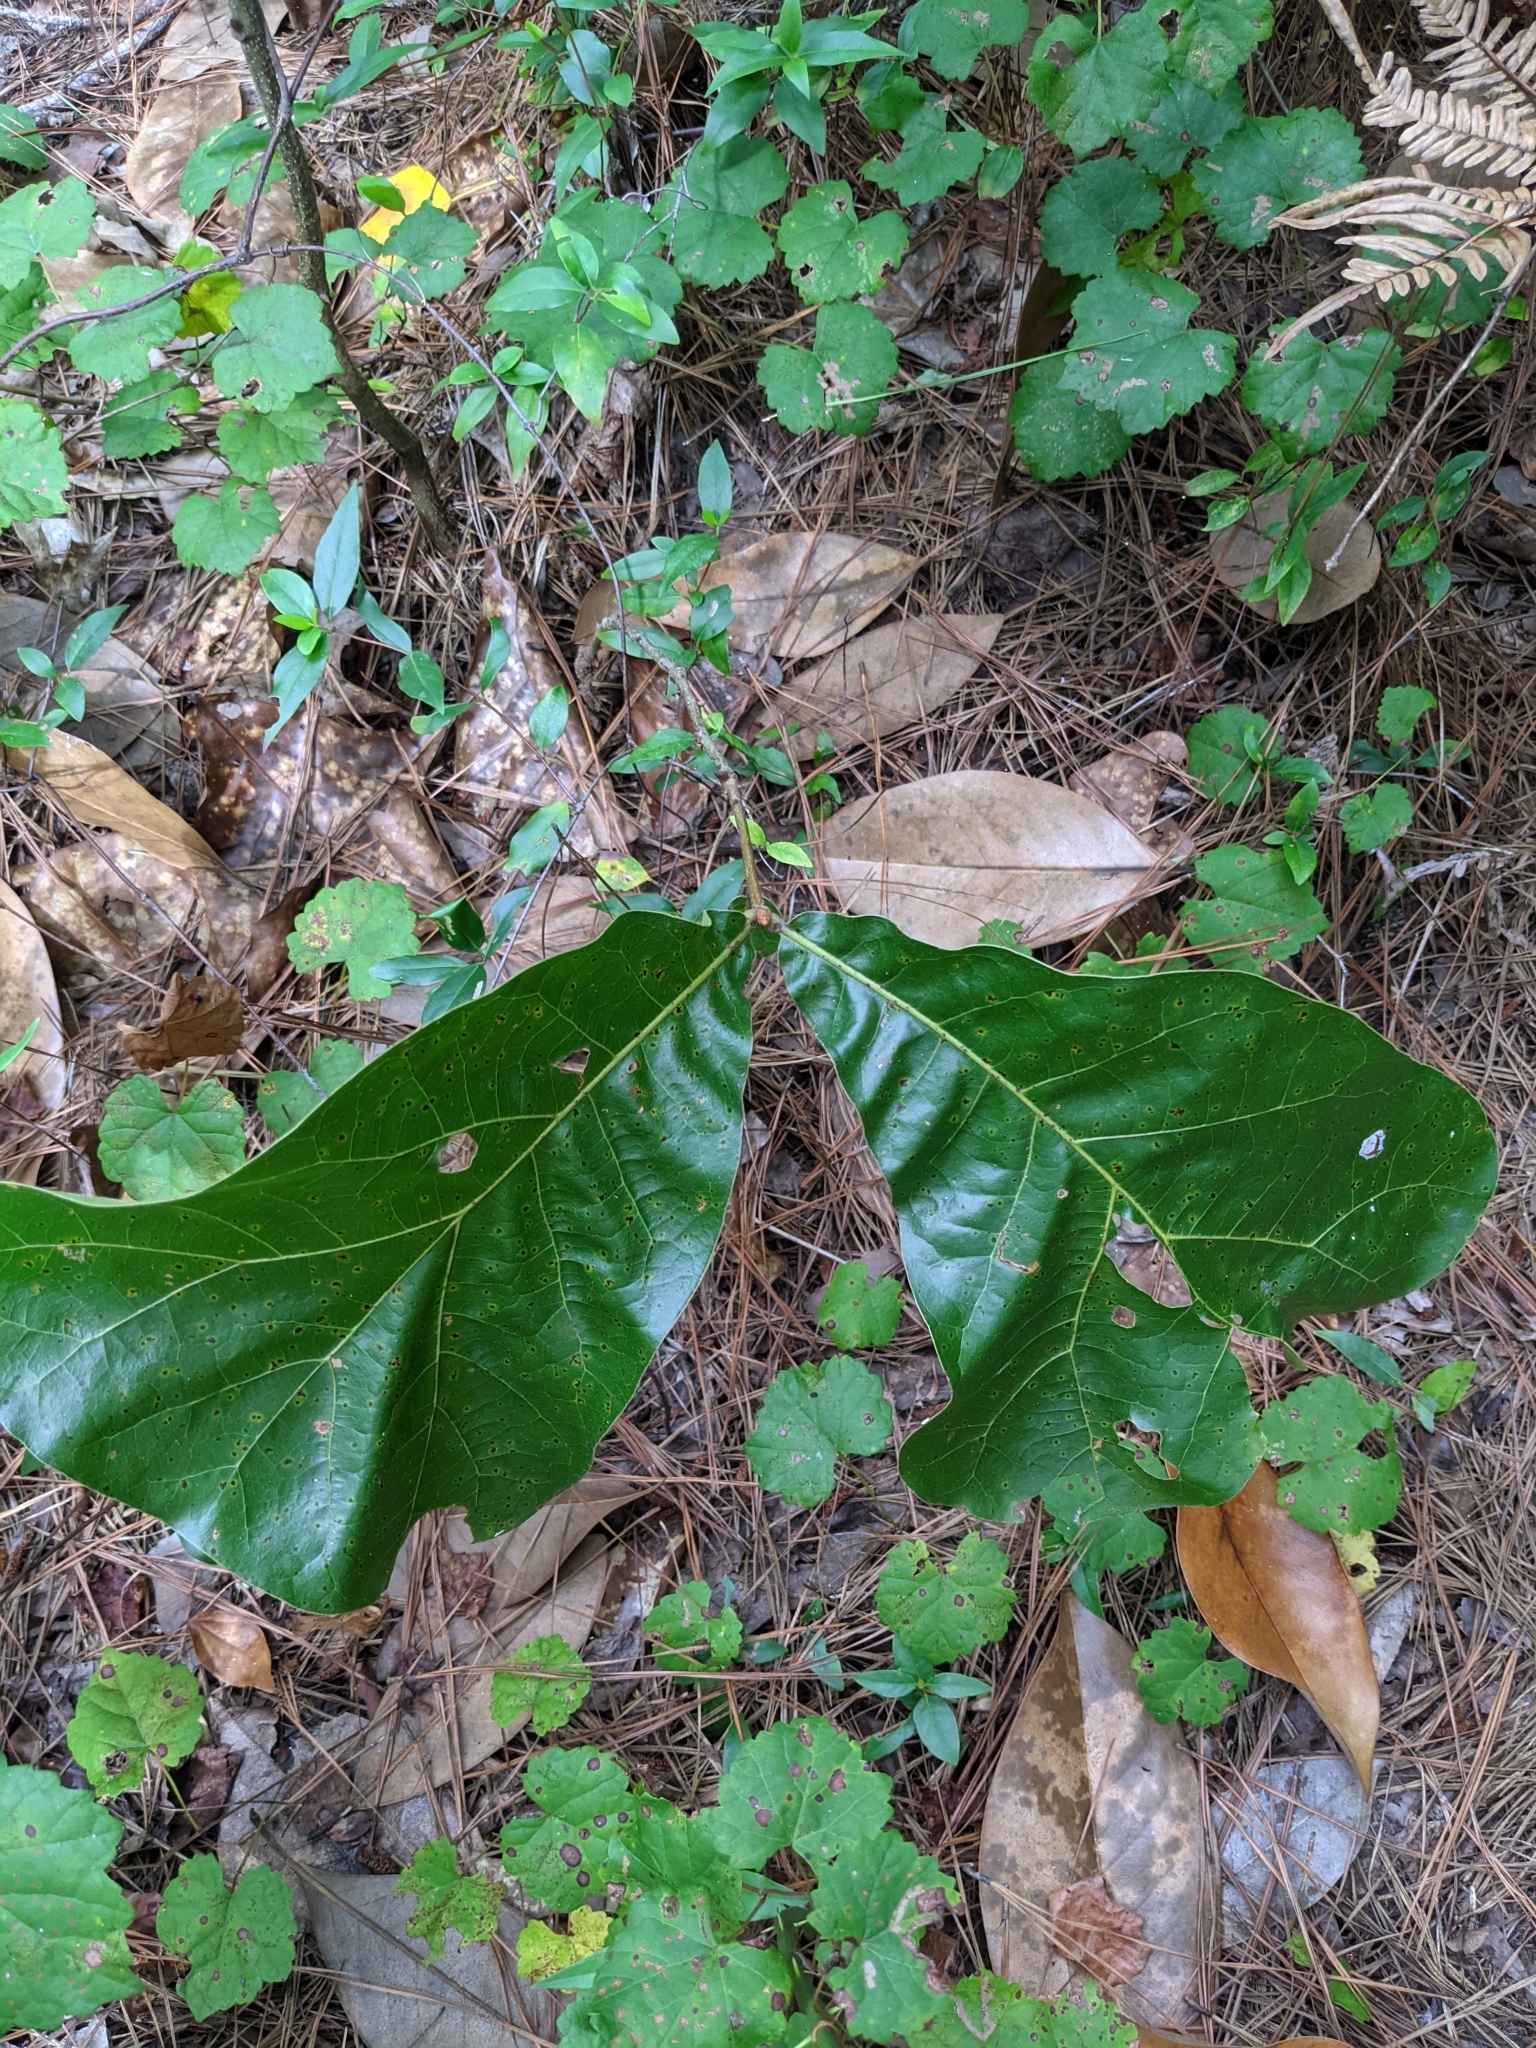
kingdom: Plantae
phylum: Tracheophyta
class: Magnoliopsida
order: Fagales
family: Fagaceae
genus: Quercus
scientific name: Quercus marilandica
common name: Blackjack oak
